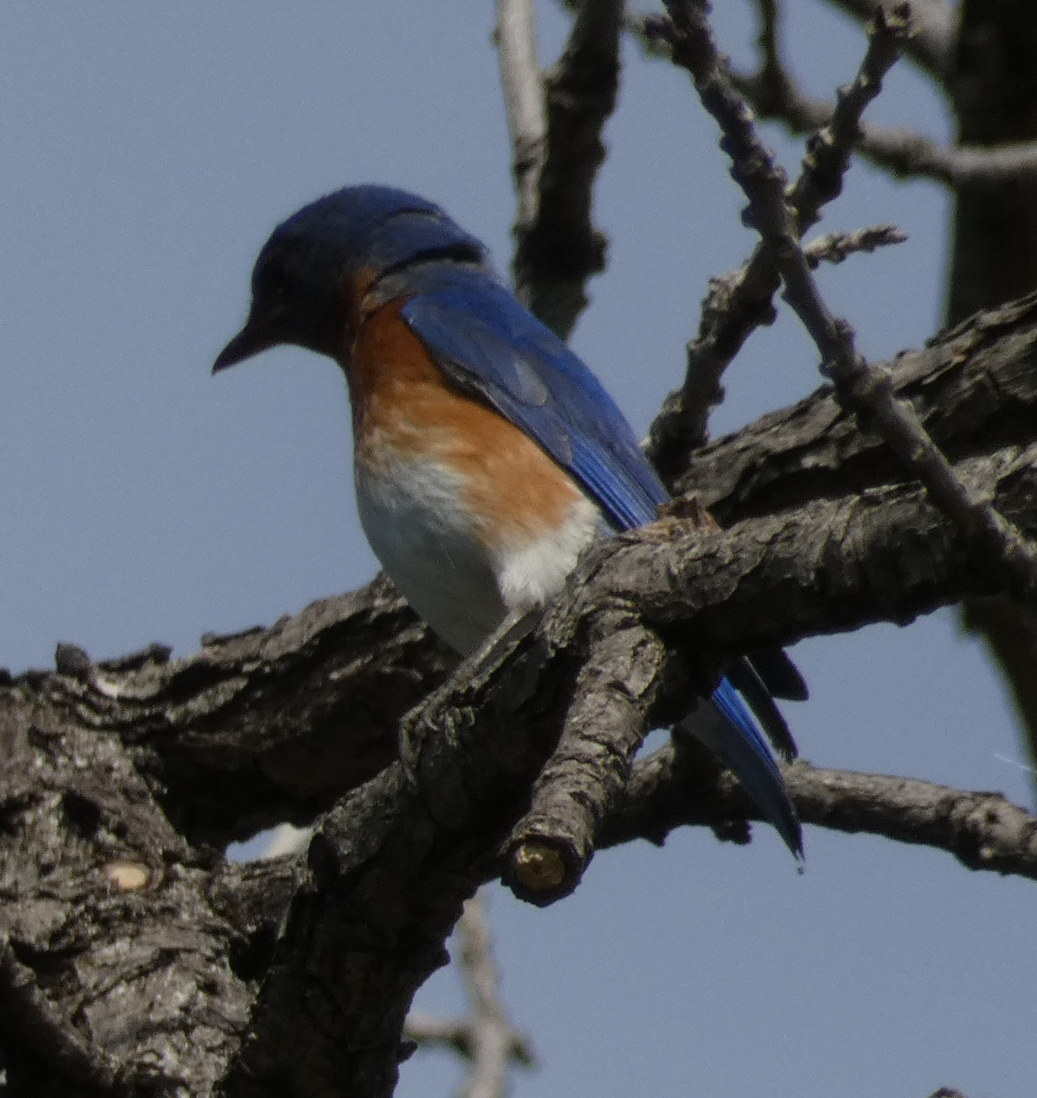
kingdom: Animalia
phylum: Chordata
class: Aves
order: Passeriformes
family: Turdidae
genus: Sialia
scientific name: Sialia sialis
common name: Eastern bluebird
